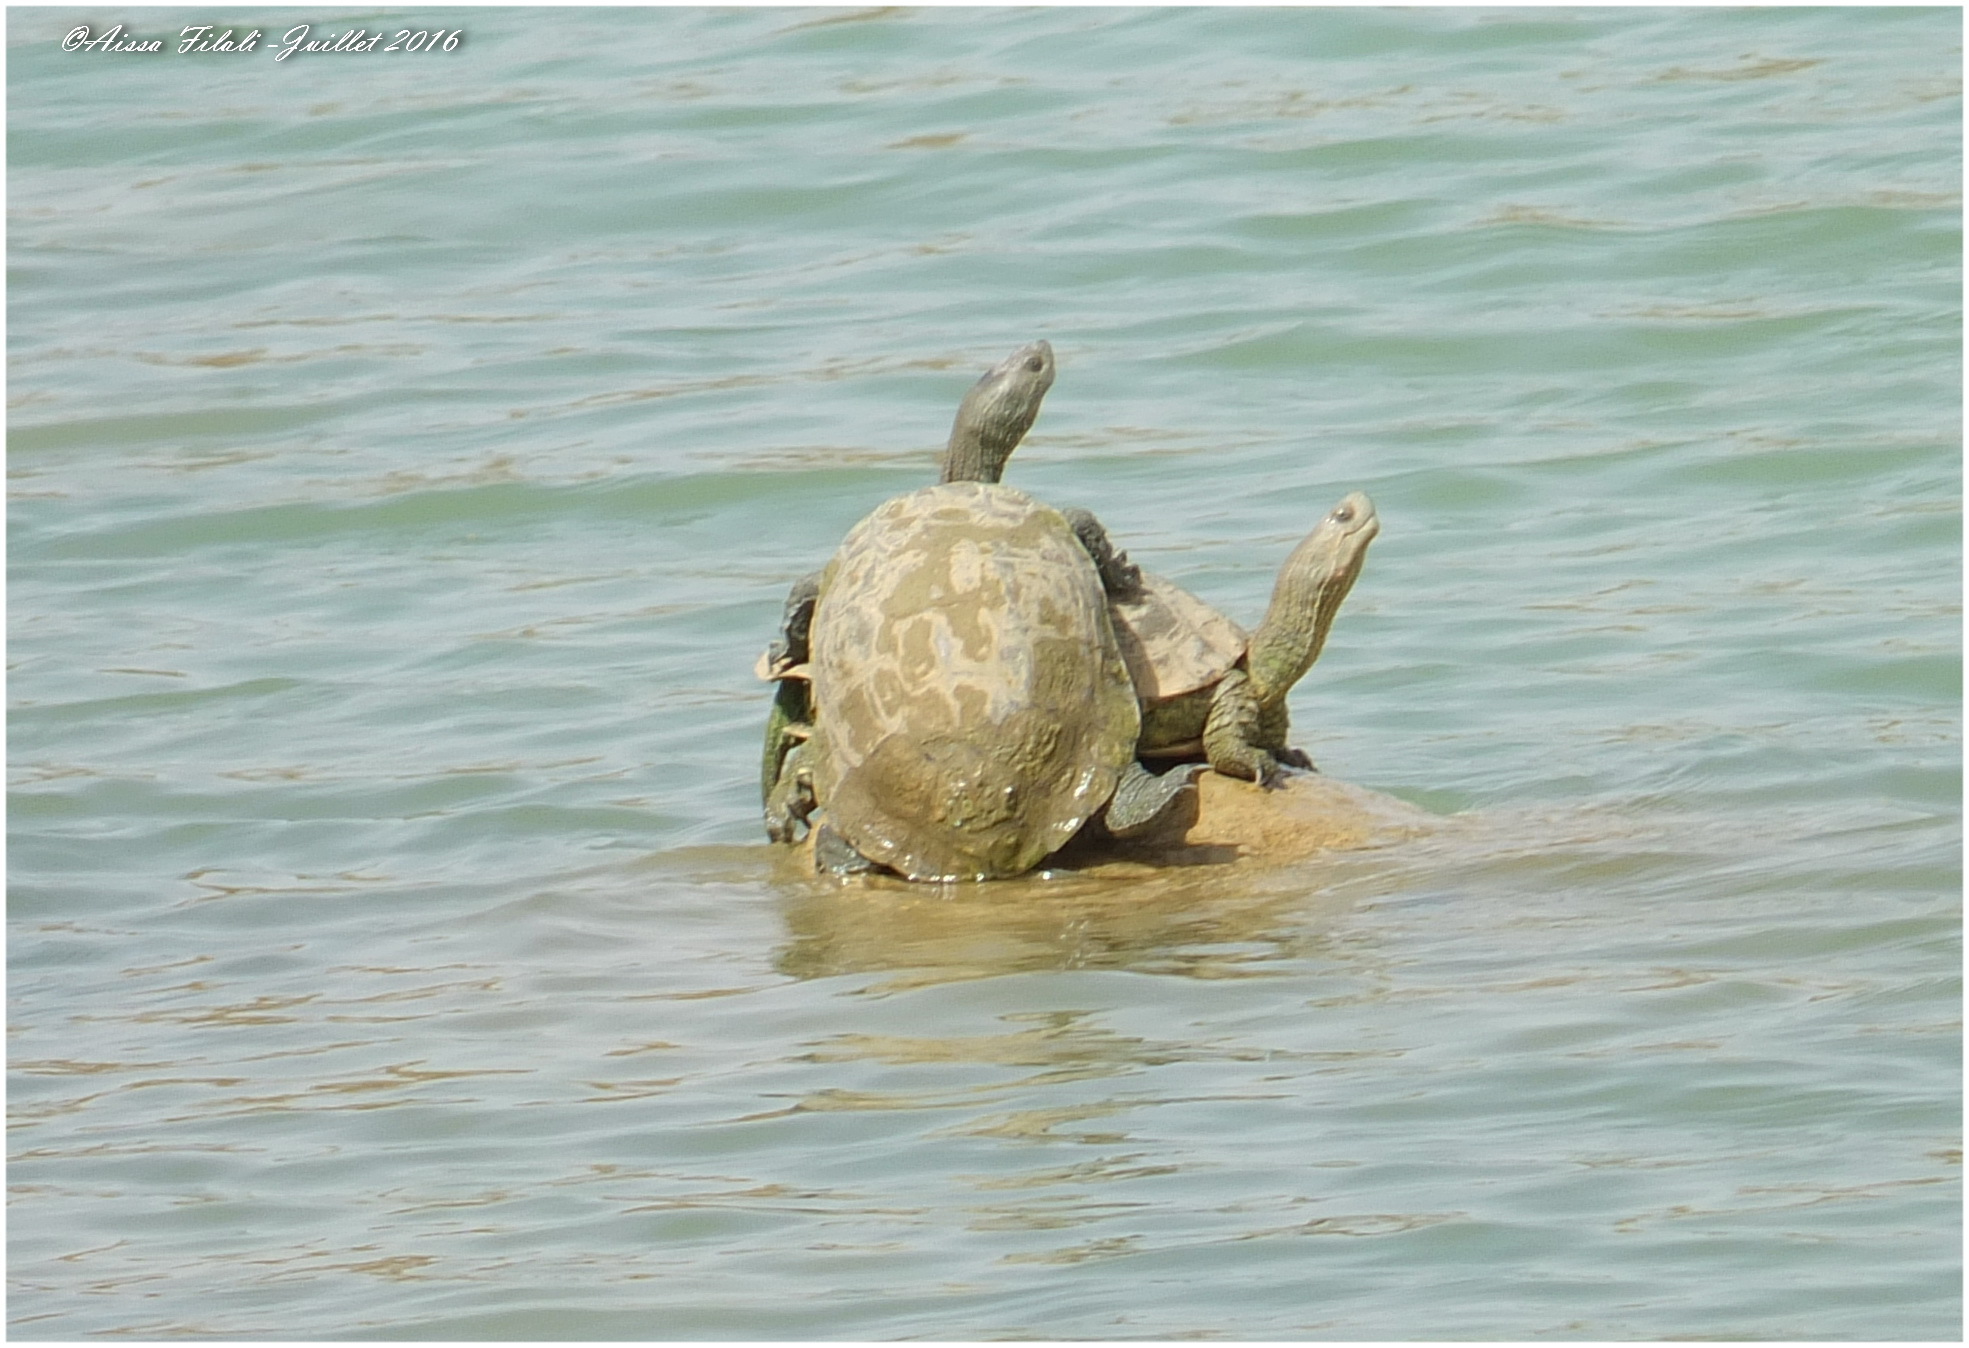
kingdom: Animalia
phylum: Chordata
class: Testudines
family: Geoemydidae
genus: Mauremys
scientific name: Mauremys leprosa
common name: Mediterranean pond turtle
